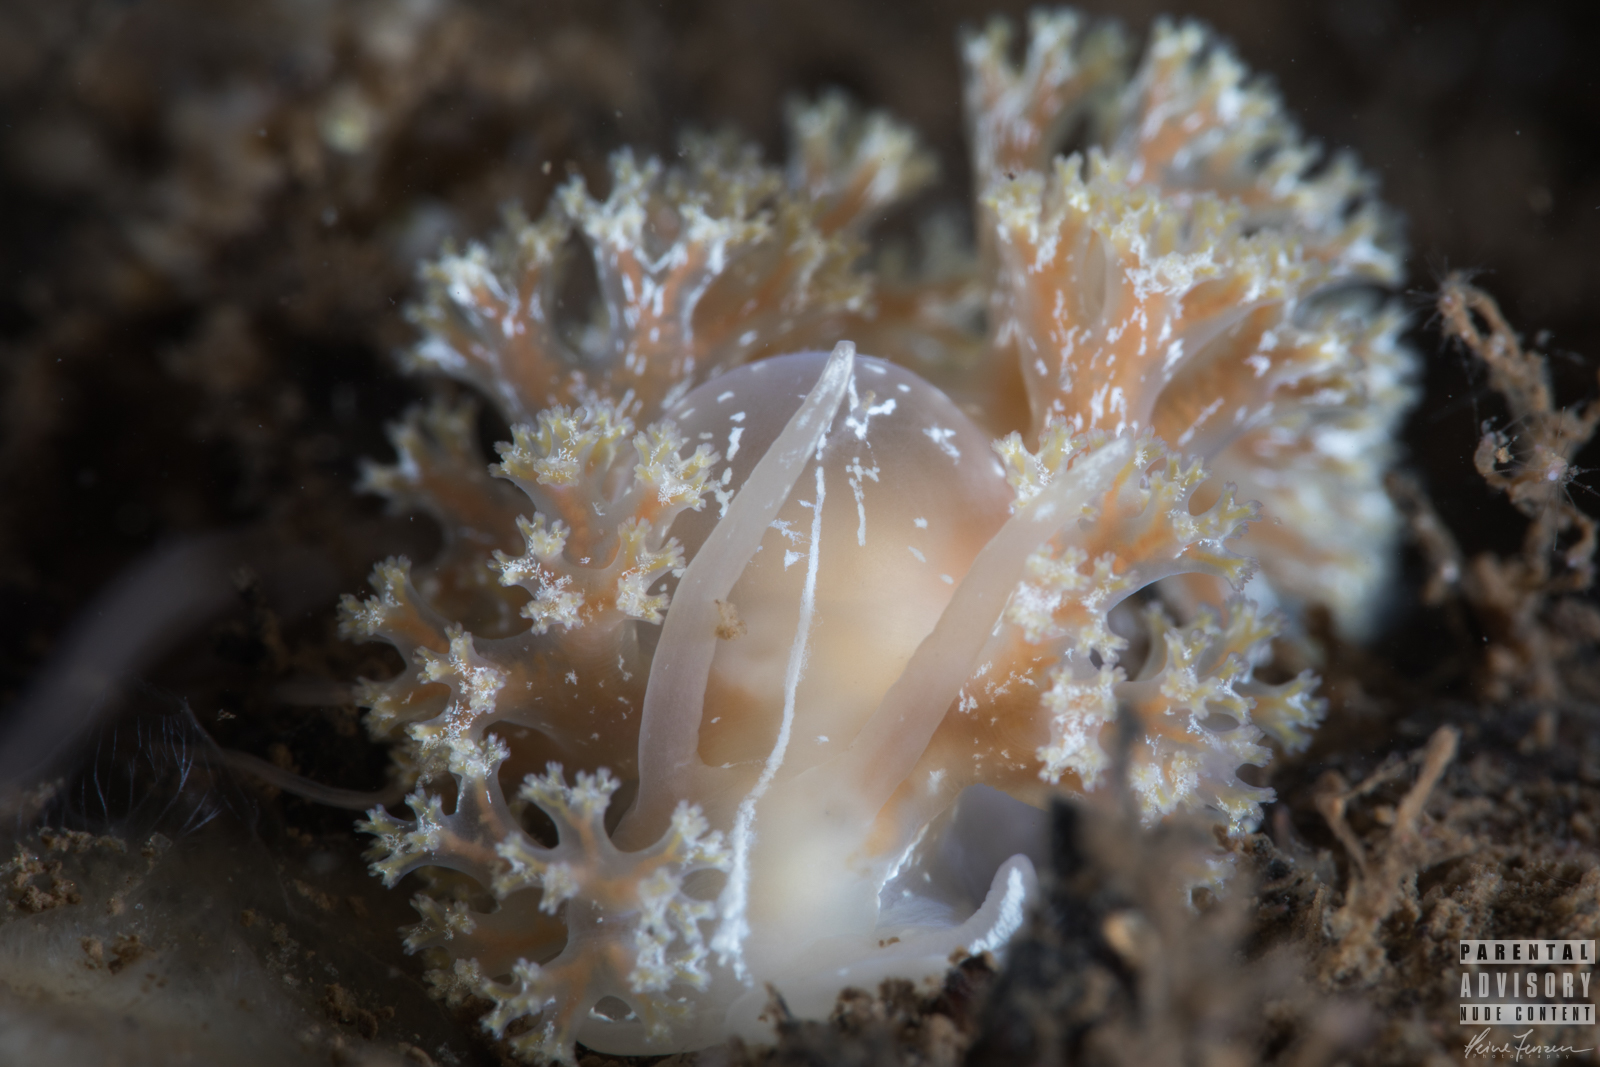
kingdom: Animalia
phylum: Mollusca
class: Gastropoda
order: Nudibranchia
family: Heroidae
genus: Hero
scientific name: Hero formosa
